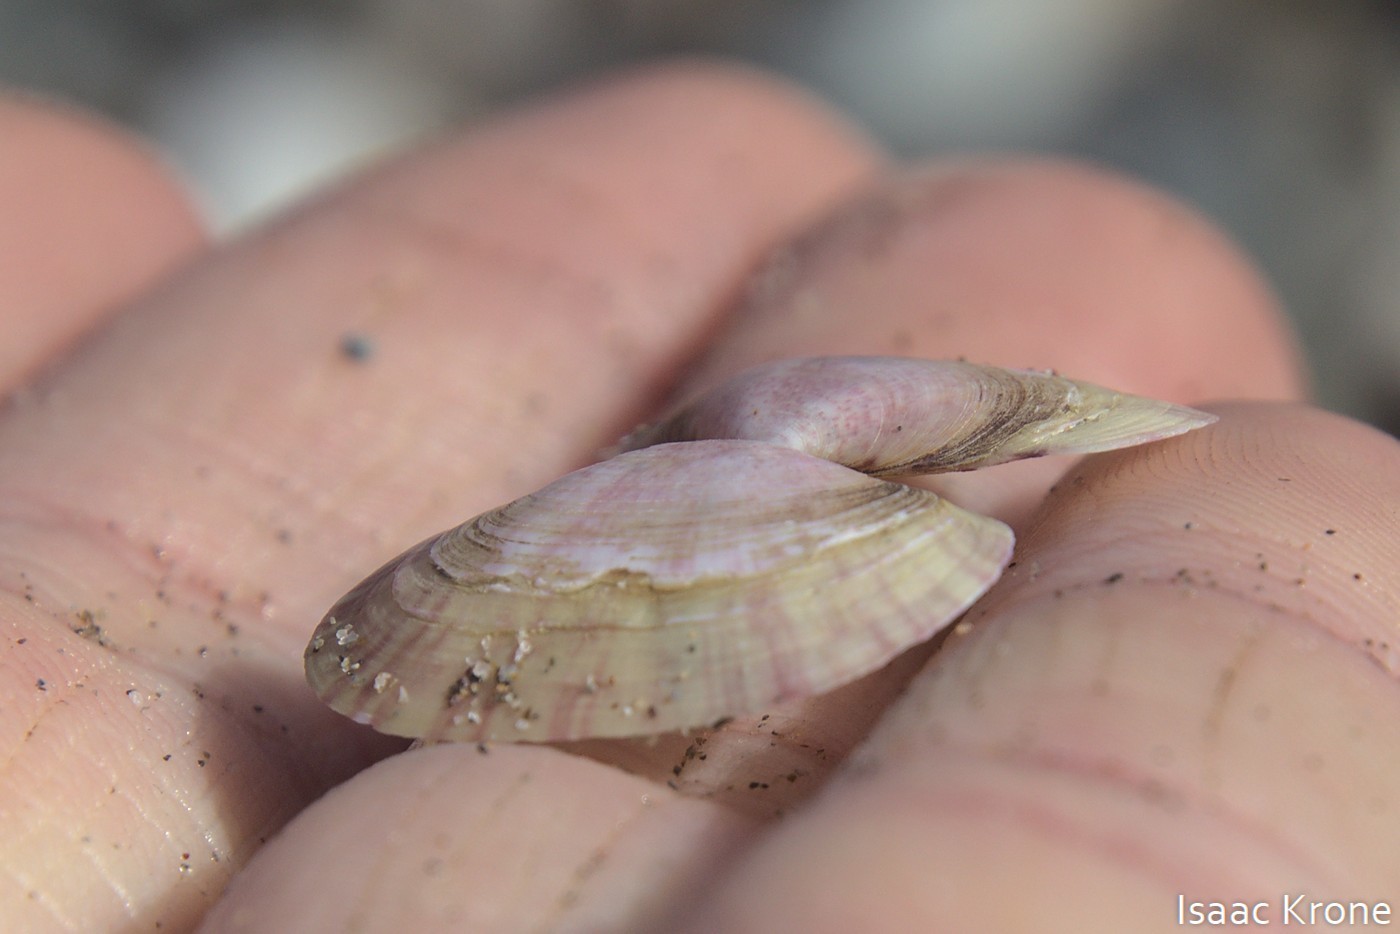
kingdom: Animalia
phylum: Mollusca
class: Bivalvia
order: Cardiida
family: Psammobiidae
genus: Gari
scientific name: Gari californica
